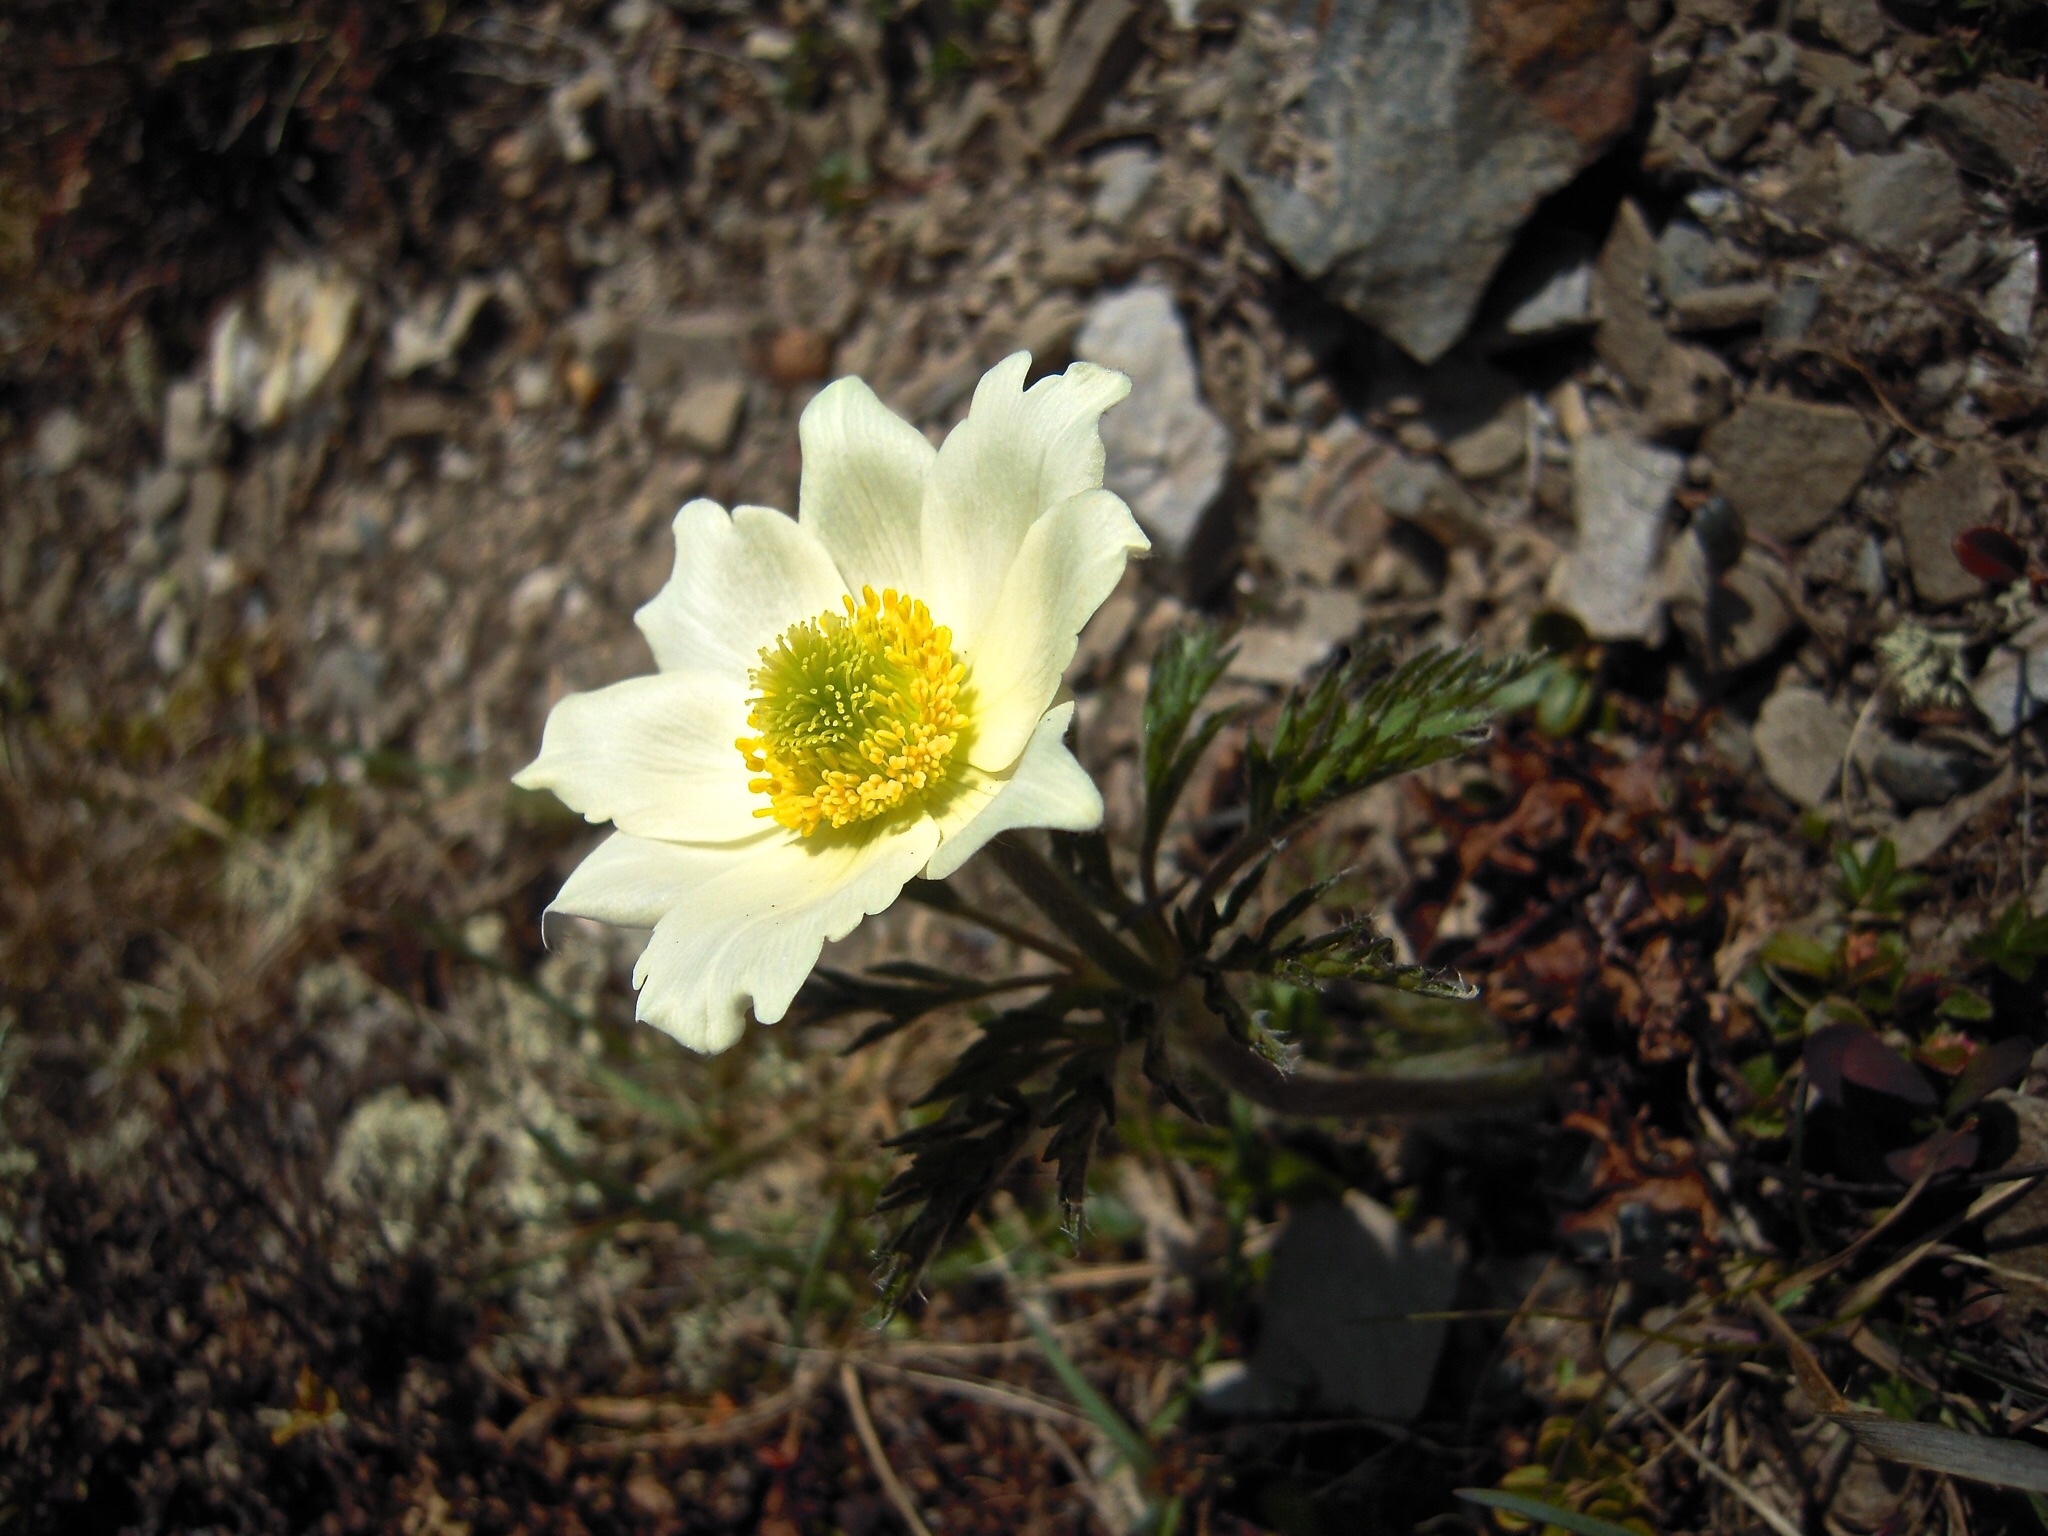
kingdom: Plantae
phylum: Tracheophyta
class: Magnoliopsida
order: Ranunculales
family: Ranunculaceae
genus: Pulsatilla
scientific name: Pulsatilla alpina
